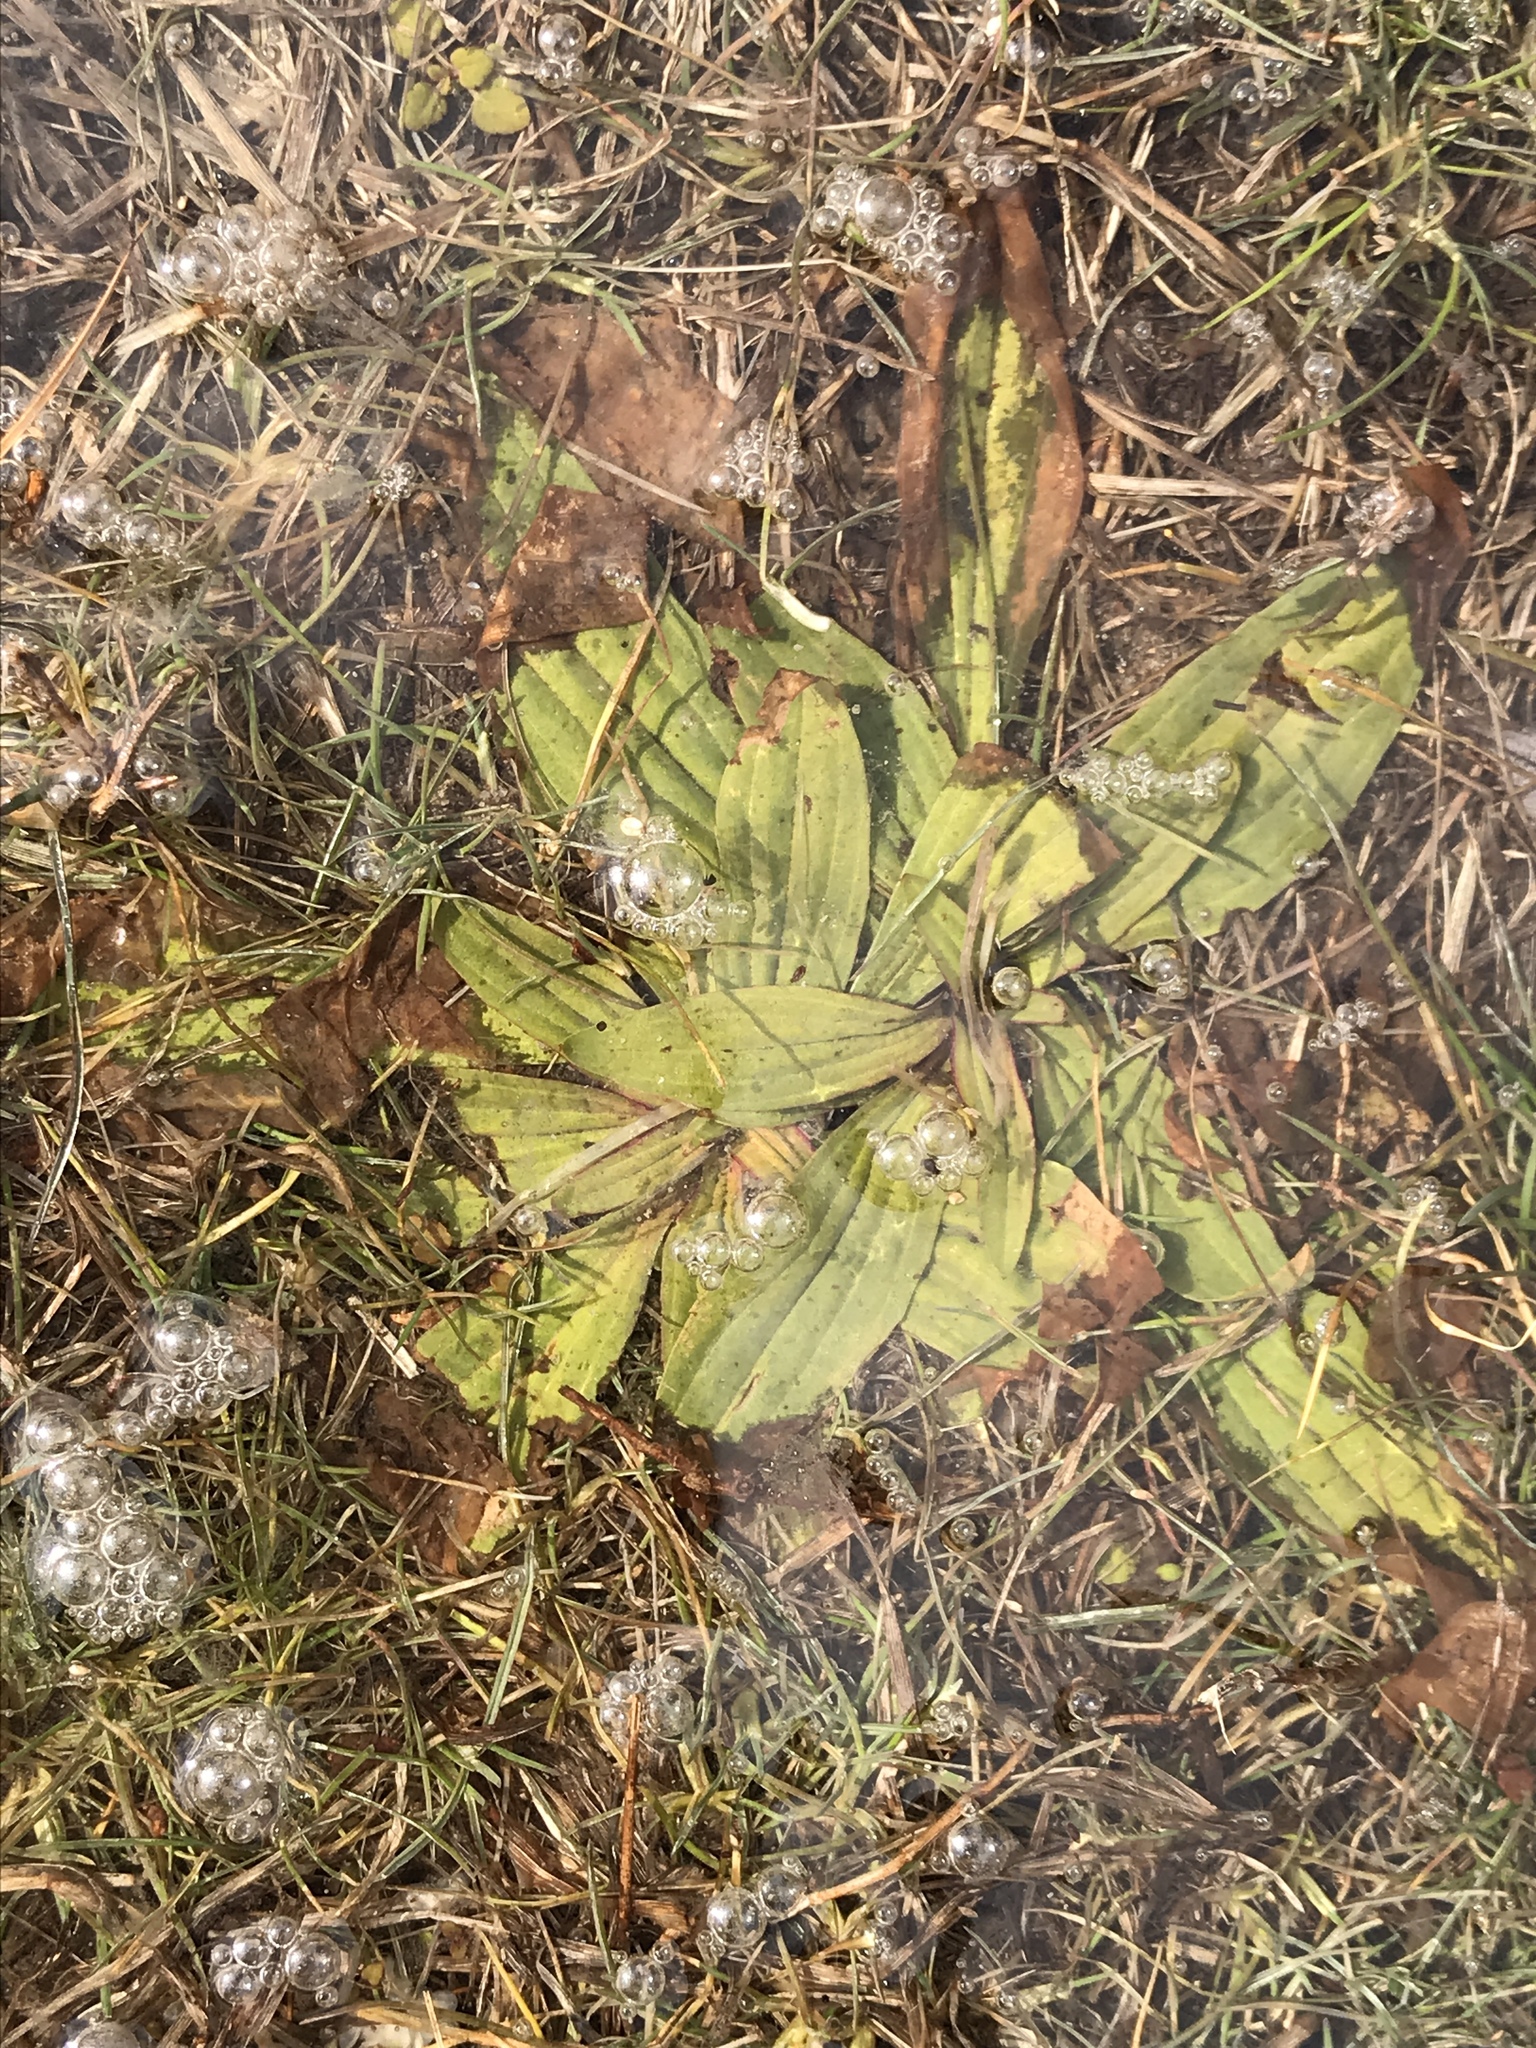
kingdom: Plantae
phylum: Tracheophyta
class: Magnoliopsida
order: Lamiales
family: Plantaginaceae
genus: Plantago
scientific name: Plantago lanceolata
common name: Ribwort plantain
